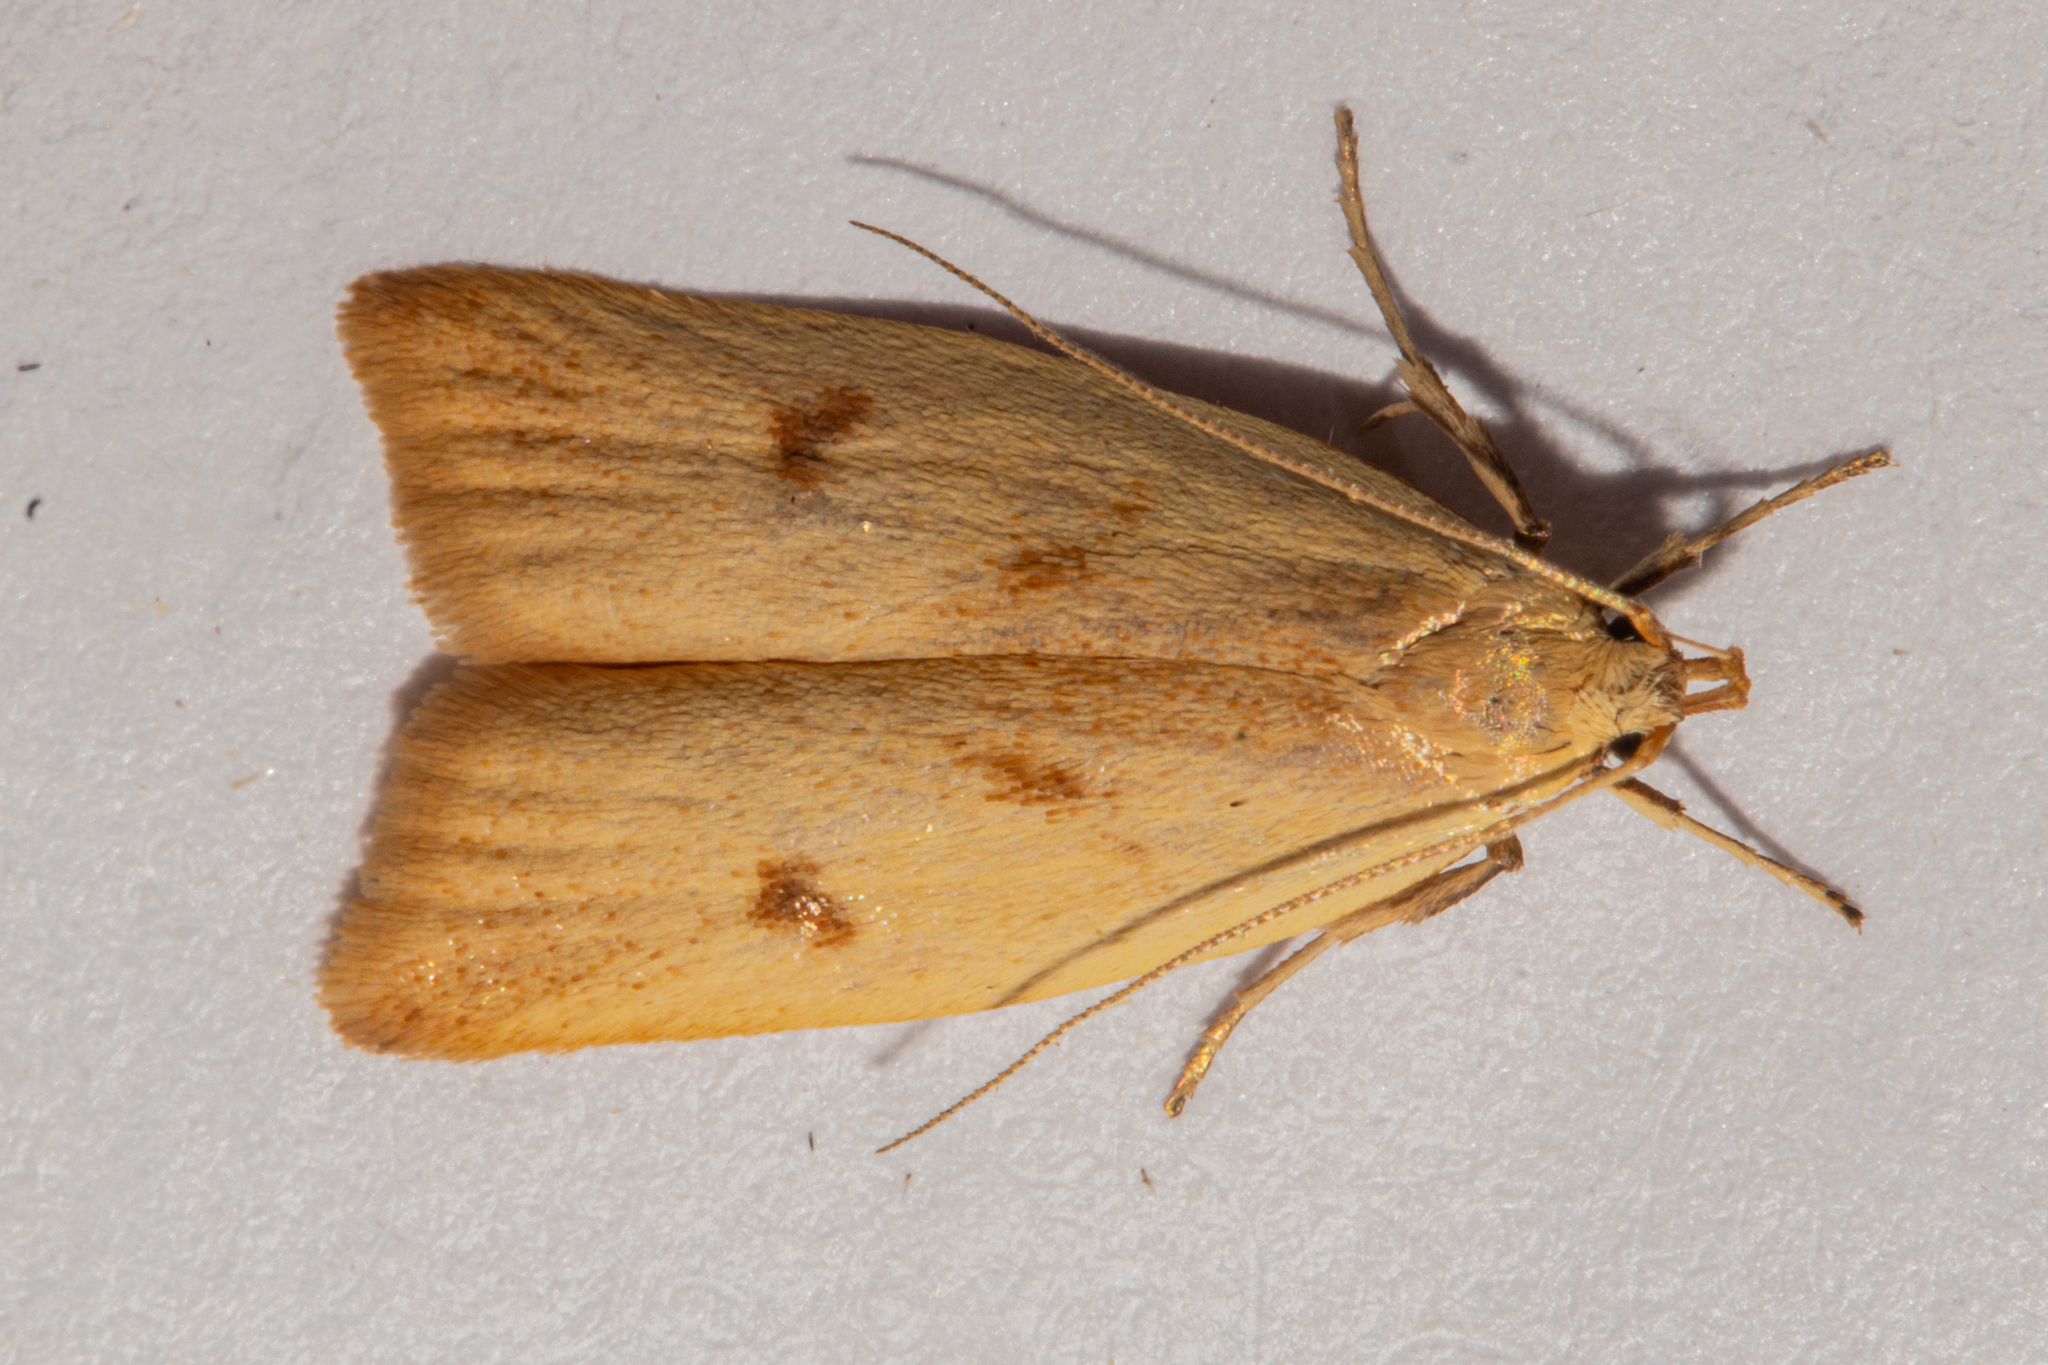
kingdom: Animalia
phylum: Arthropoda
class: Insecta
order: Lepidoptera
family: Oecophoridae
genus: Gymnobathra
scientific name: Gymnobathra sarcoxantha
